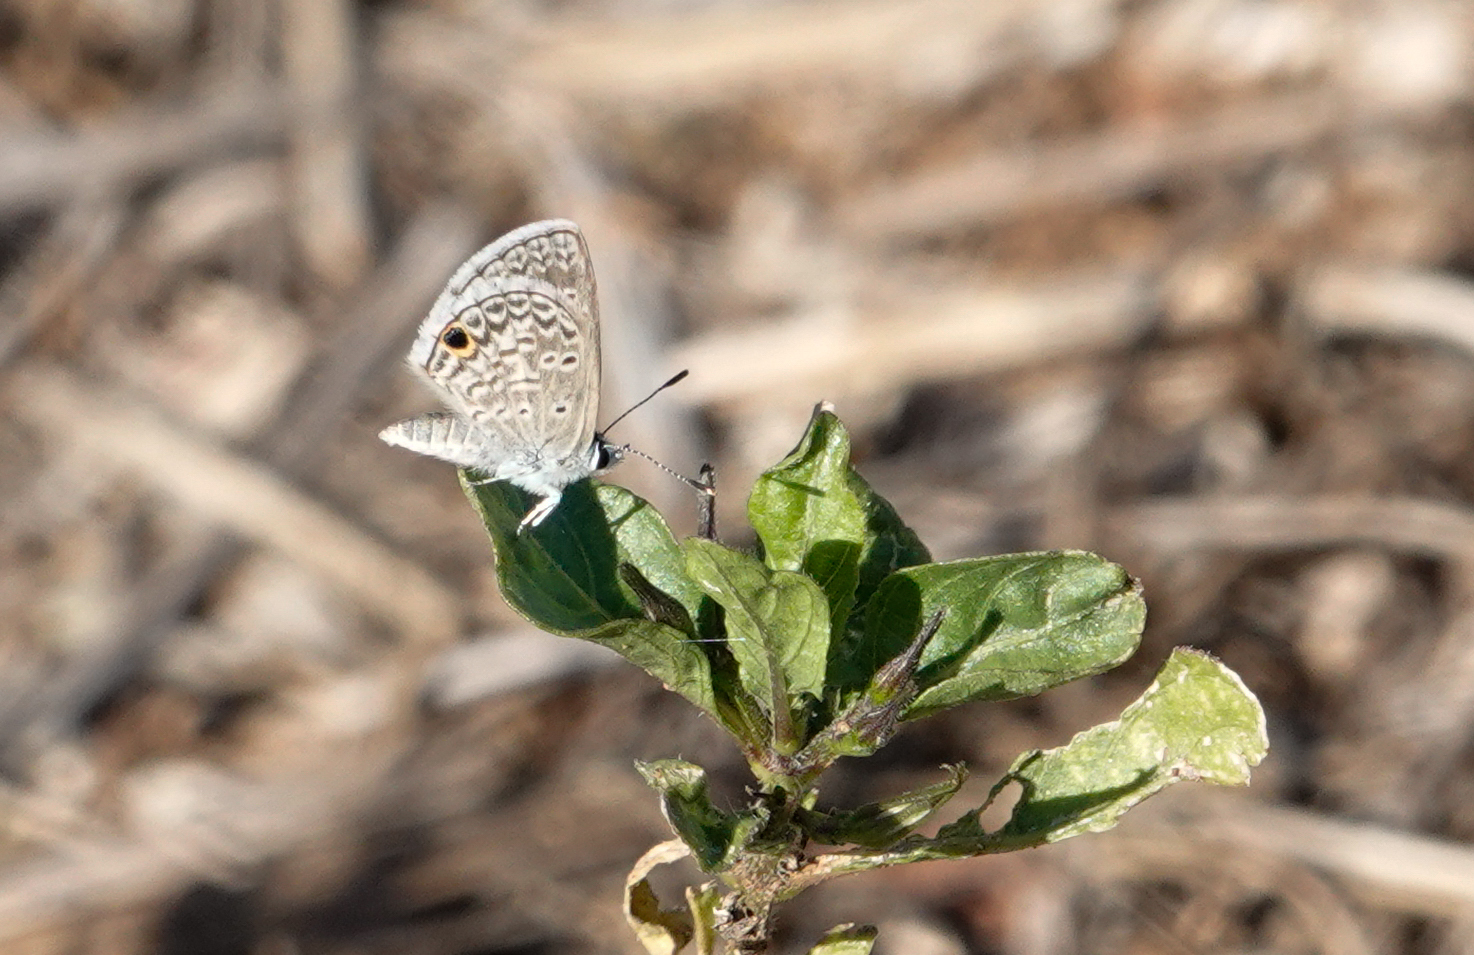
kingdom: Animalia
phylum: Arthropoda
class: Insecta
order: Lepidoptera
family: Lycaenidae
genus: Hemiargus
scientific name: Hemiargus hanno
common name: Common blue
